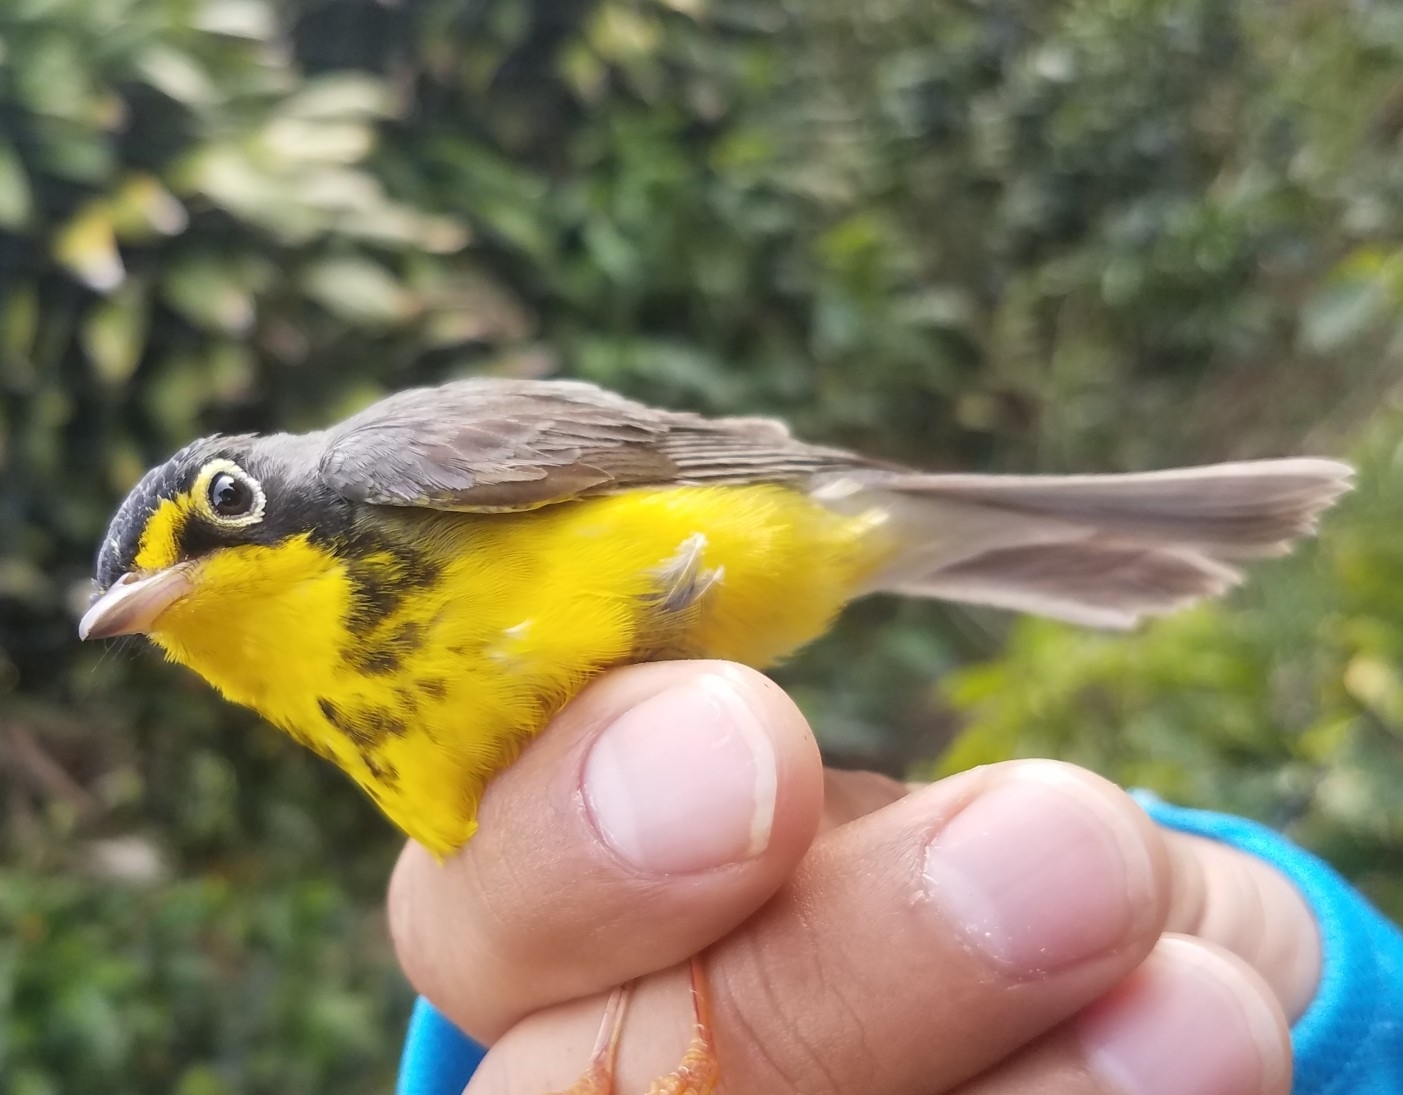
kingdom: Animalia
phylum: Chordata
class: Aves
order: Passeriformes
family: Parulidae
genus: Cardellina
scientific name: Cardellina canadensis
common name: Canada warbler
